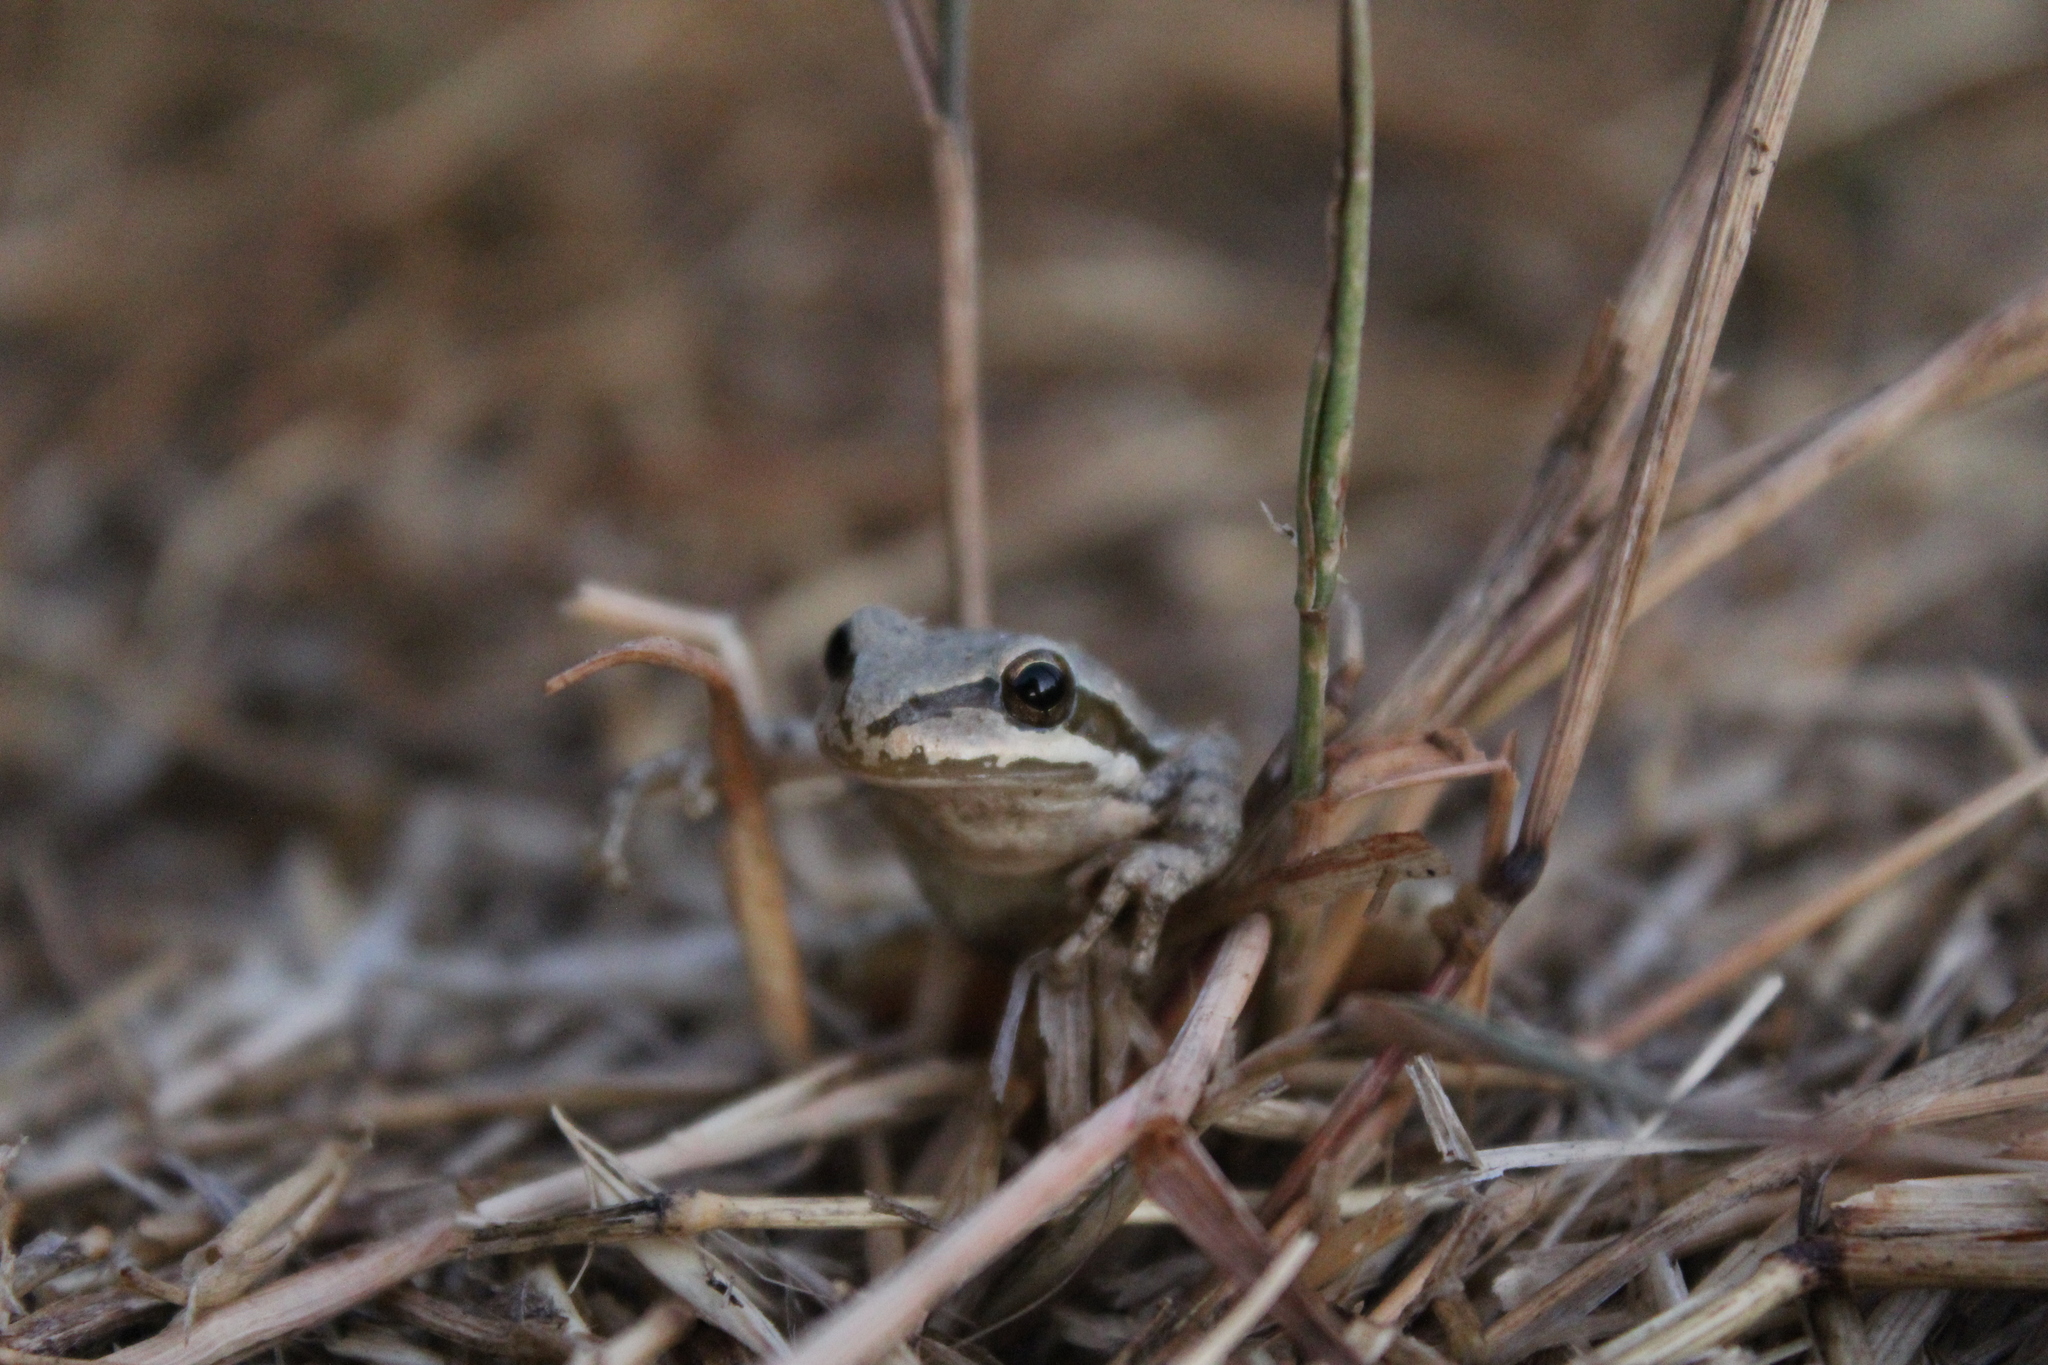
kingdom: Animalia
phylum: Chordata
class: Amphibia
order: Anura
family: Hylidae
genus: Pseudacris
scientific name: Pseudacris regilla
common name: Pacific chorus frog
